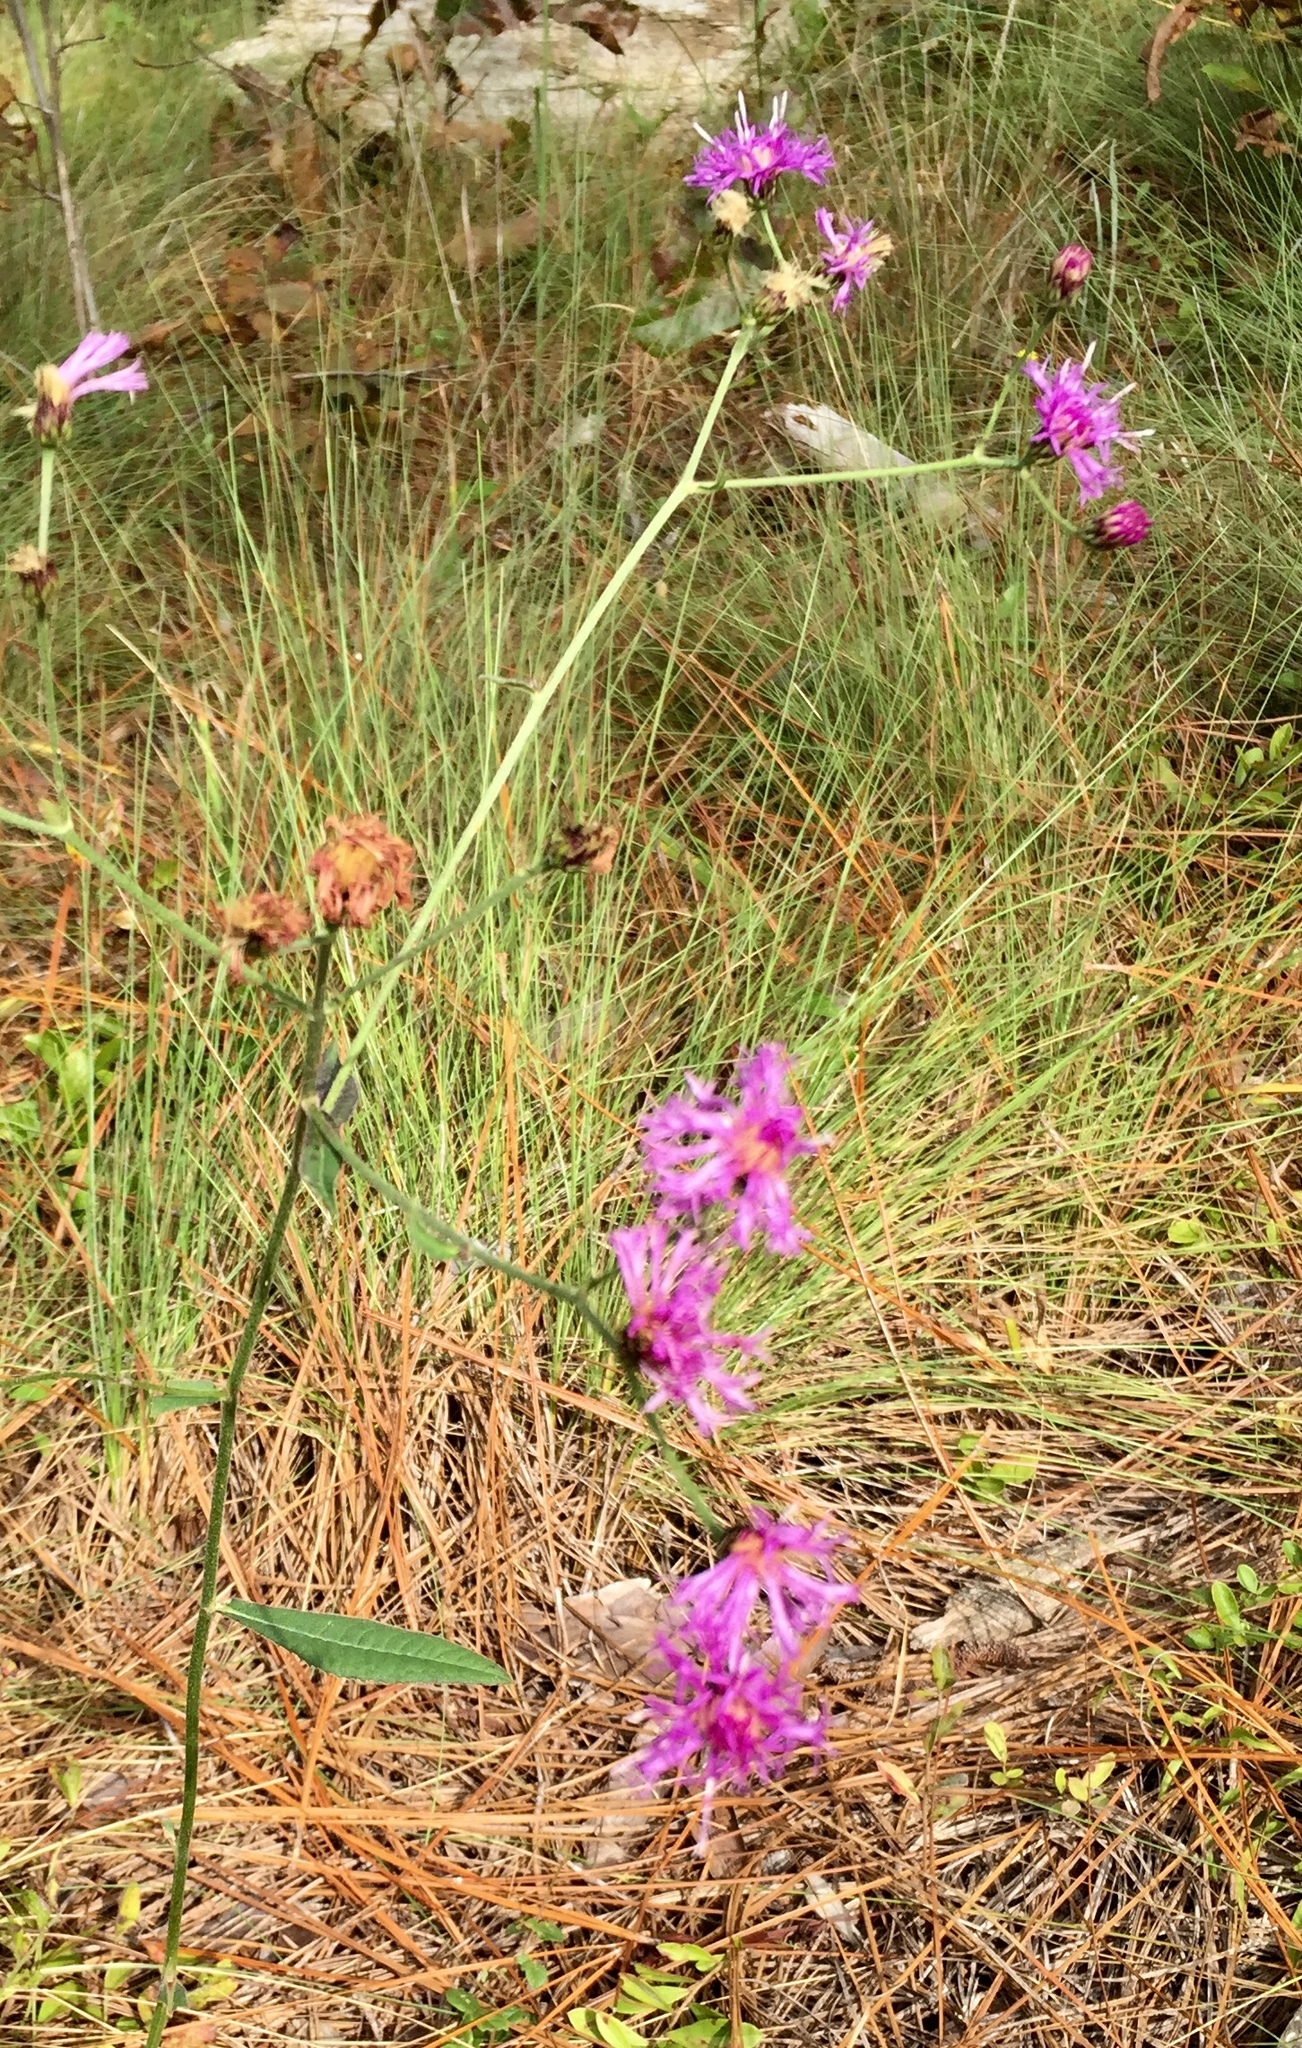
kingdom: Plantae
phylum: Tracheophyta
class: Magnoliopsida
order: Asterales
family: Asteraceae
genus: Vernonia
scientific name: Vernonia acaulis
